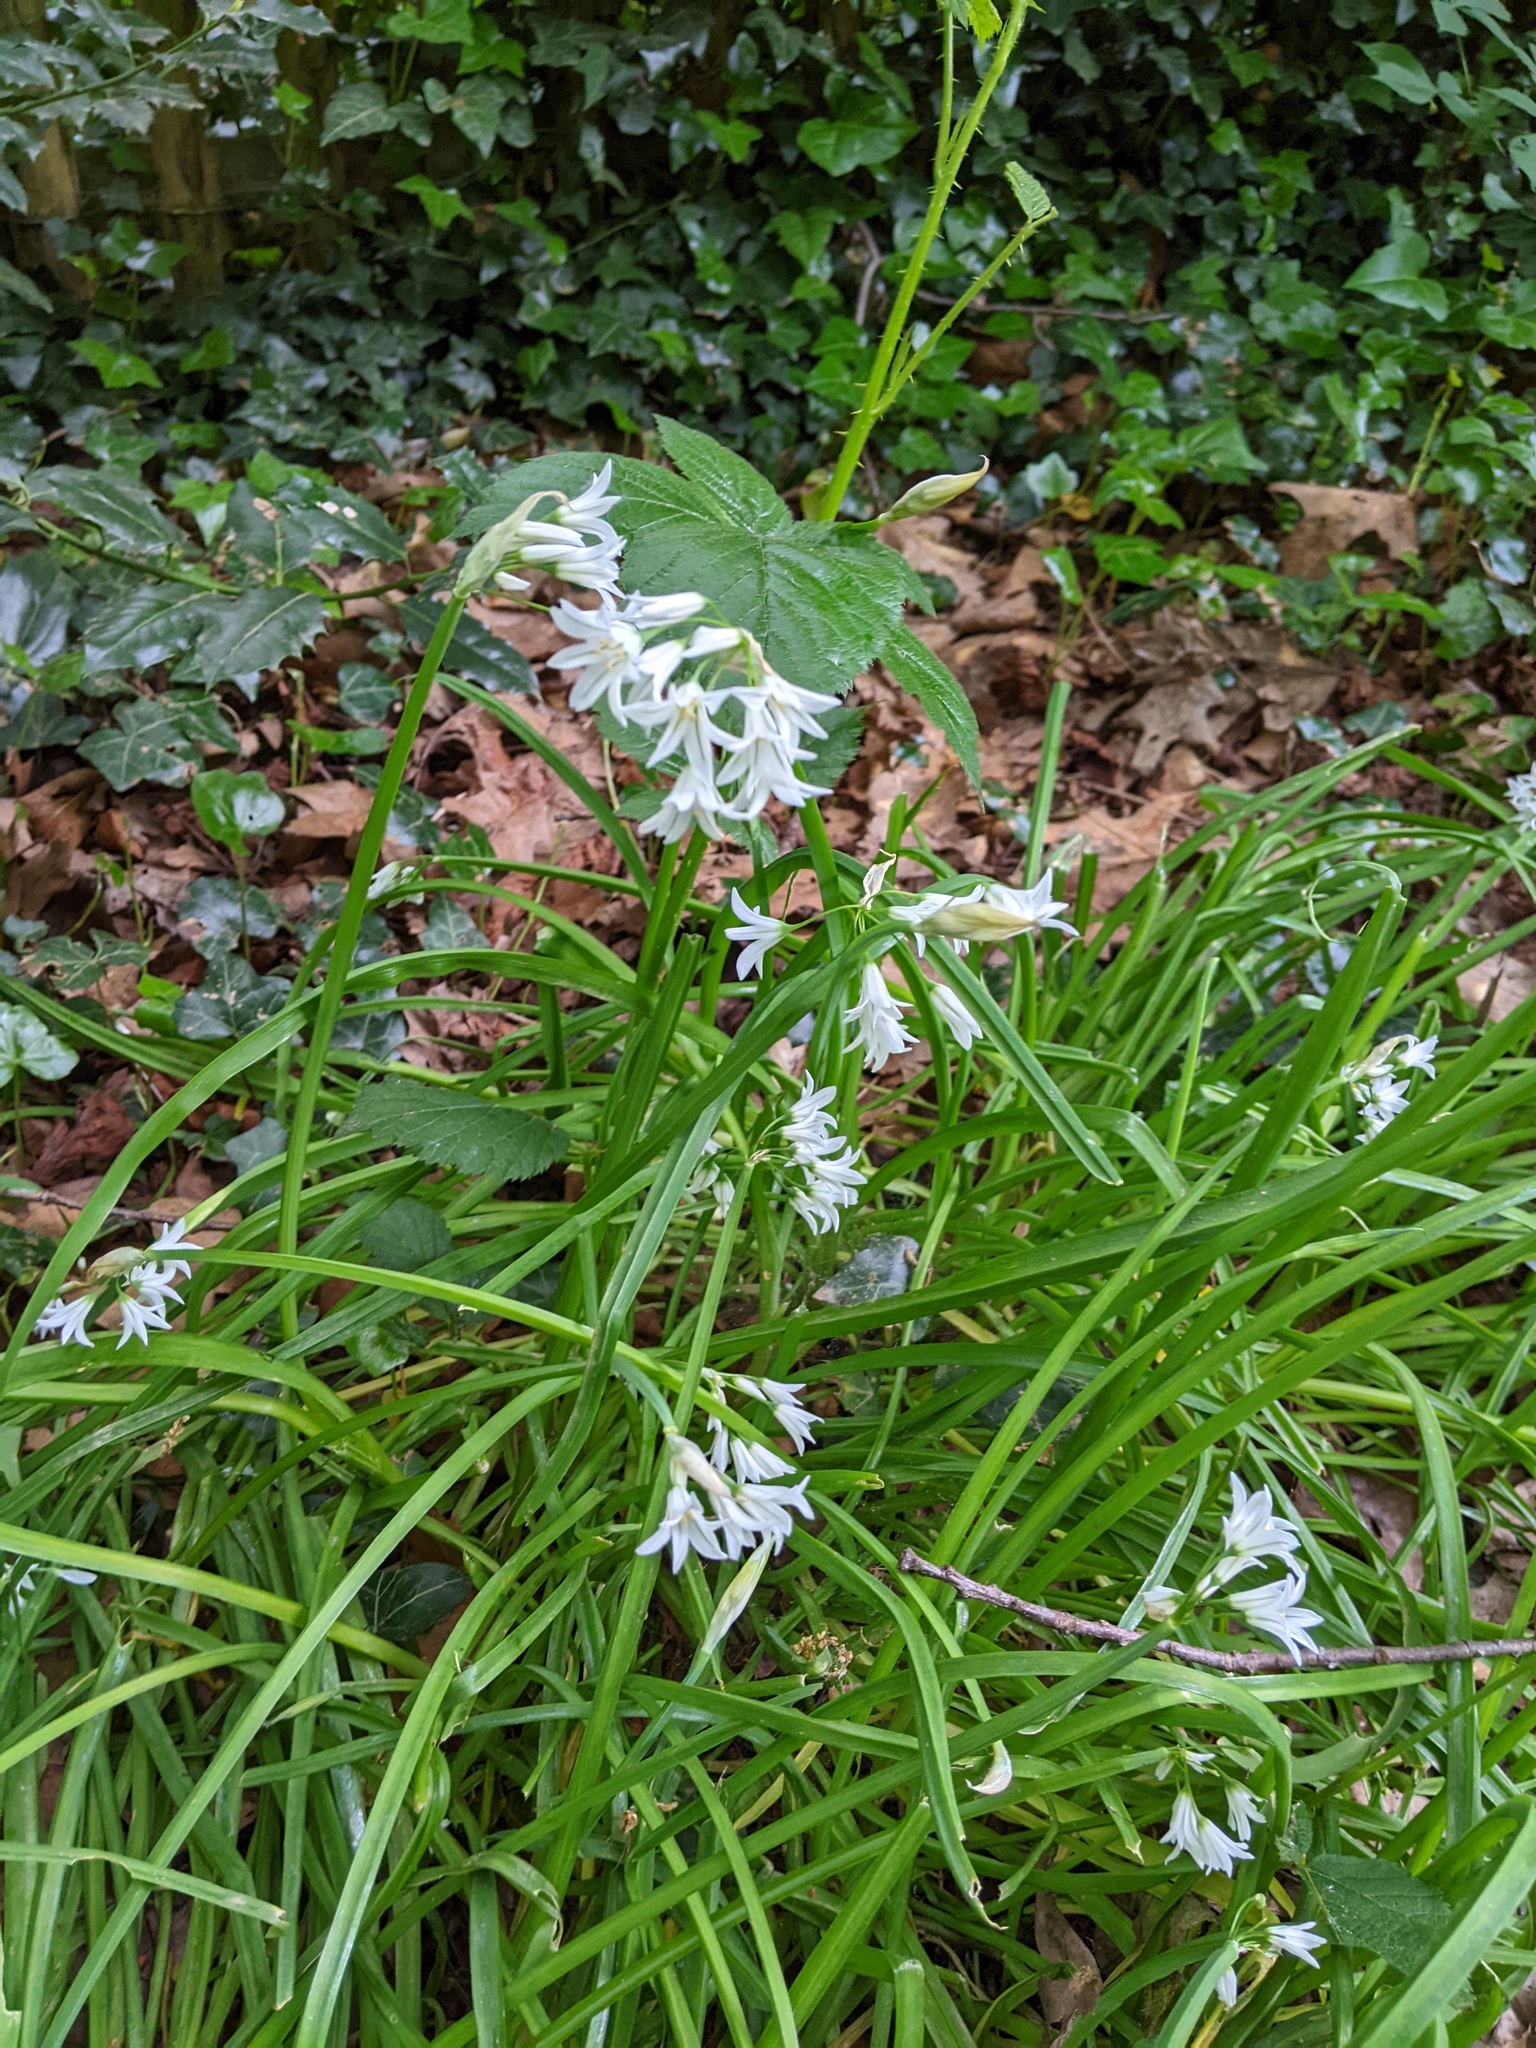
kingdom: Plantae
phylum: Tracheophyta
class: Liliopsida
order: Asparagales
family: Amaryllidaceae
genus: Allium
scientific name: Allium triquetrum
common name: Three-cornered garlic
